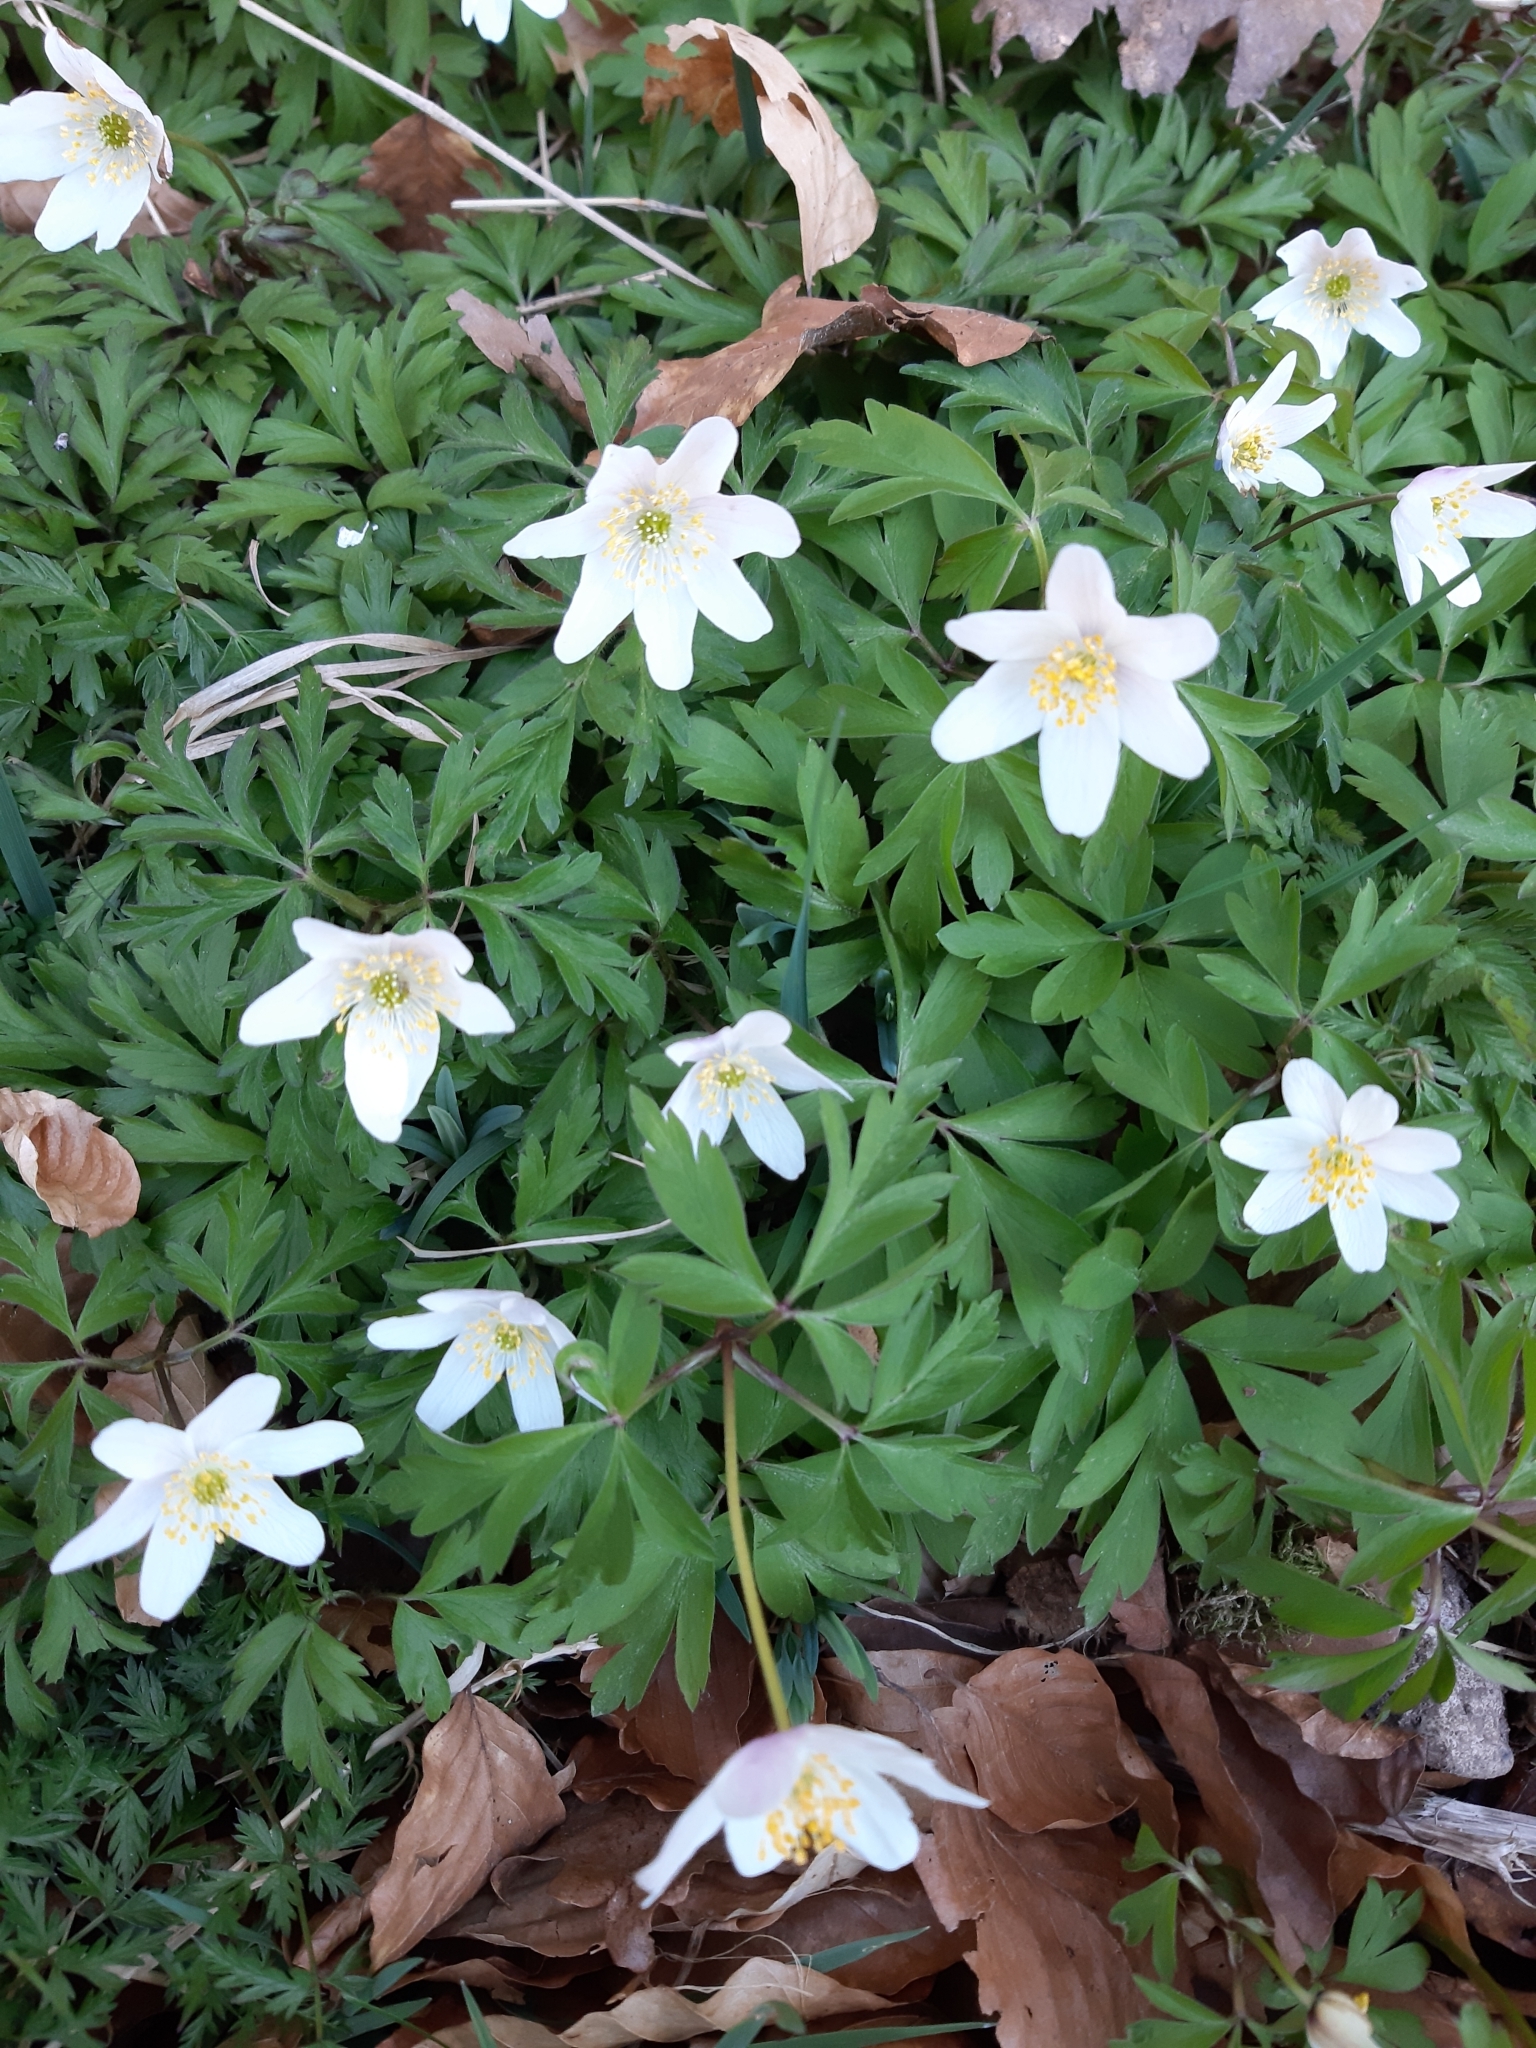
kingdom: Plantae
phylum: Tracheophyta
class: Magnoliopsida
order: Ranunculales
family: Ranunculaceae
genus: Anemone
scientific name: Anemone nemorosa
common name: Wood anemone
